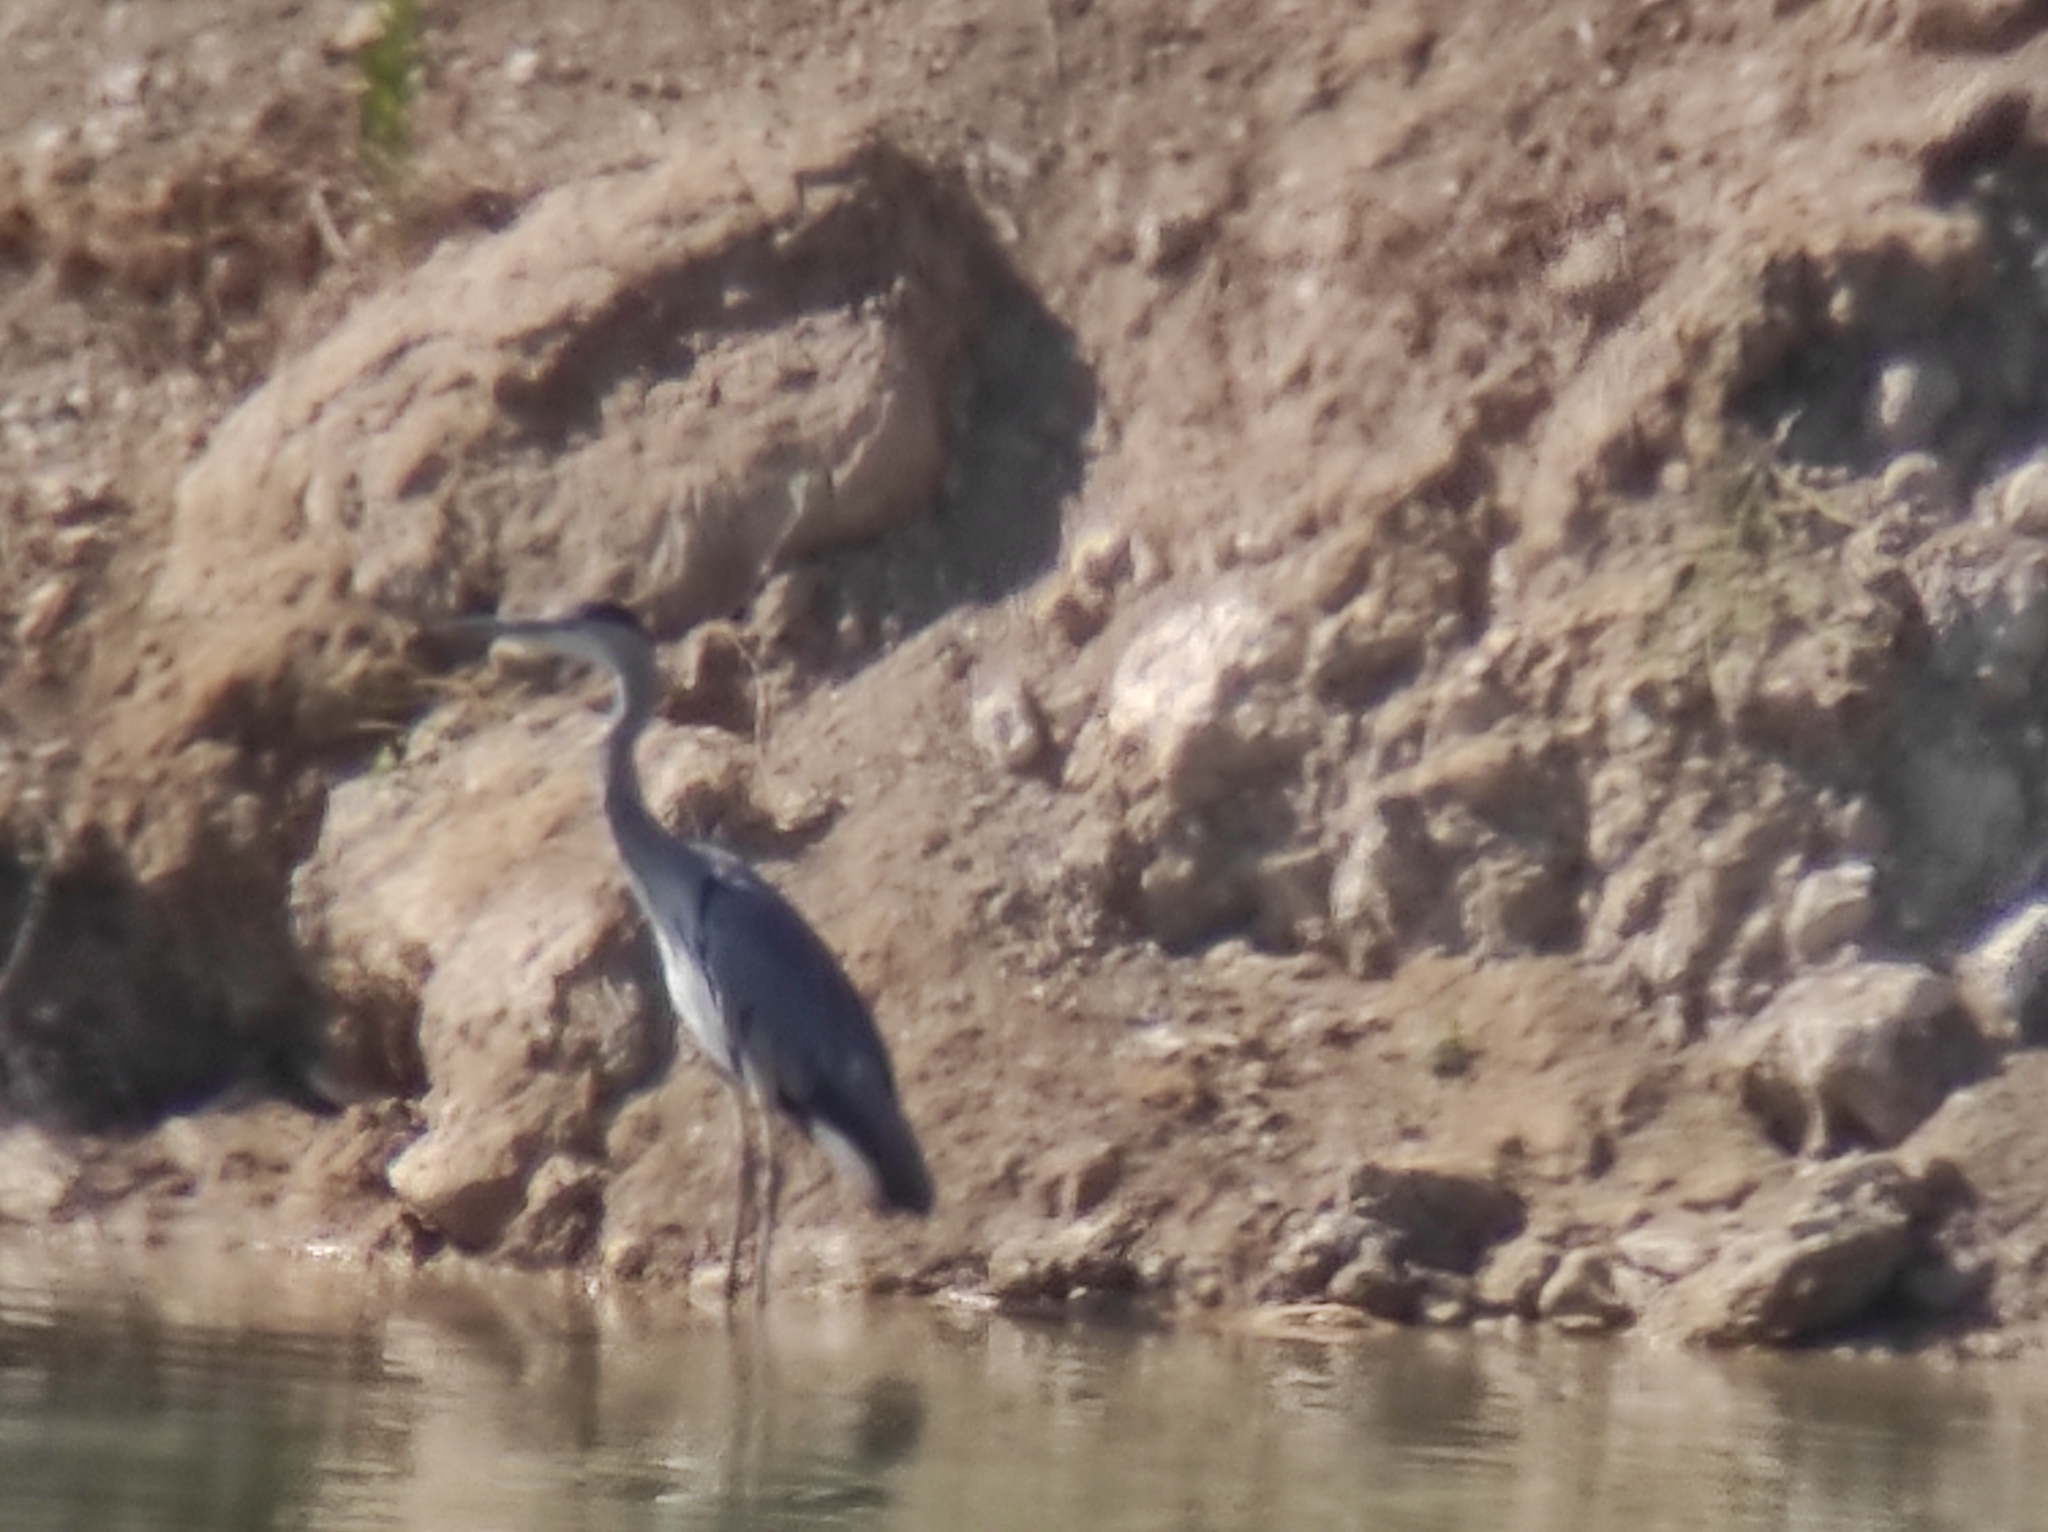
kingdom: Animalia
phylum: Chordata
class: Aves
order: Pelecaniformes
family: Ardeidae
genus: Ardea
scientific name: Ardea cinerea
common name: Grey heron
